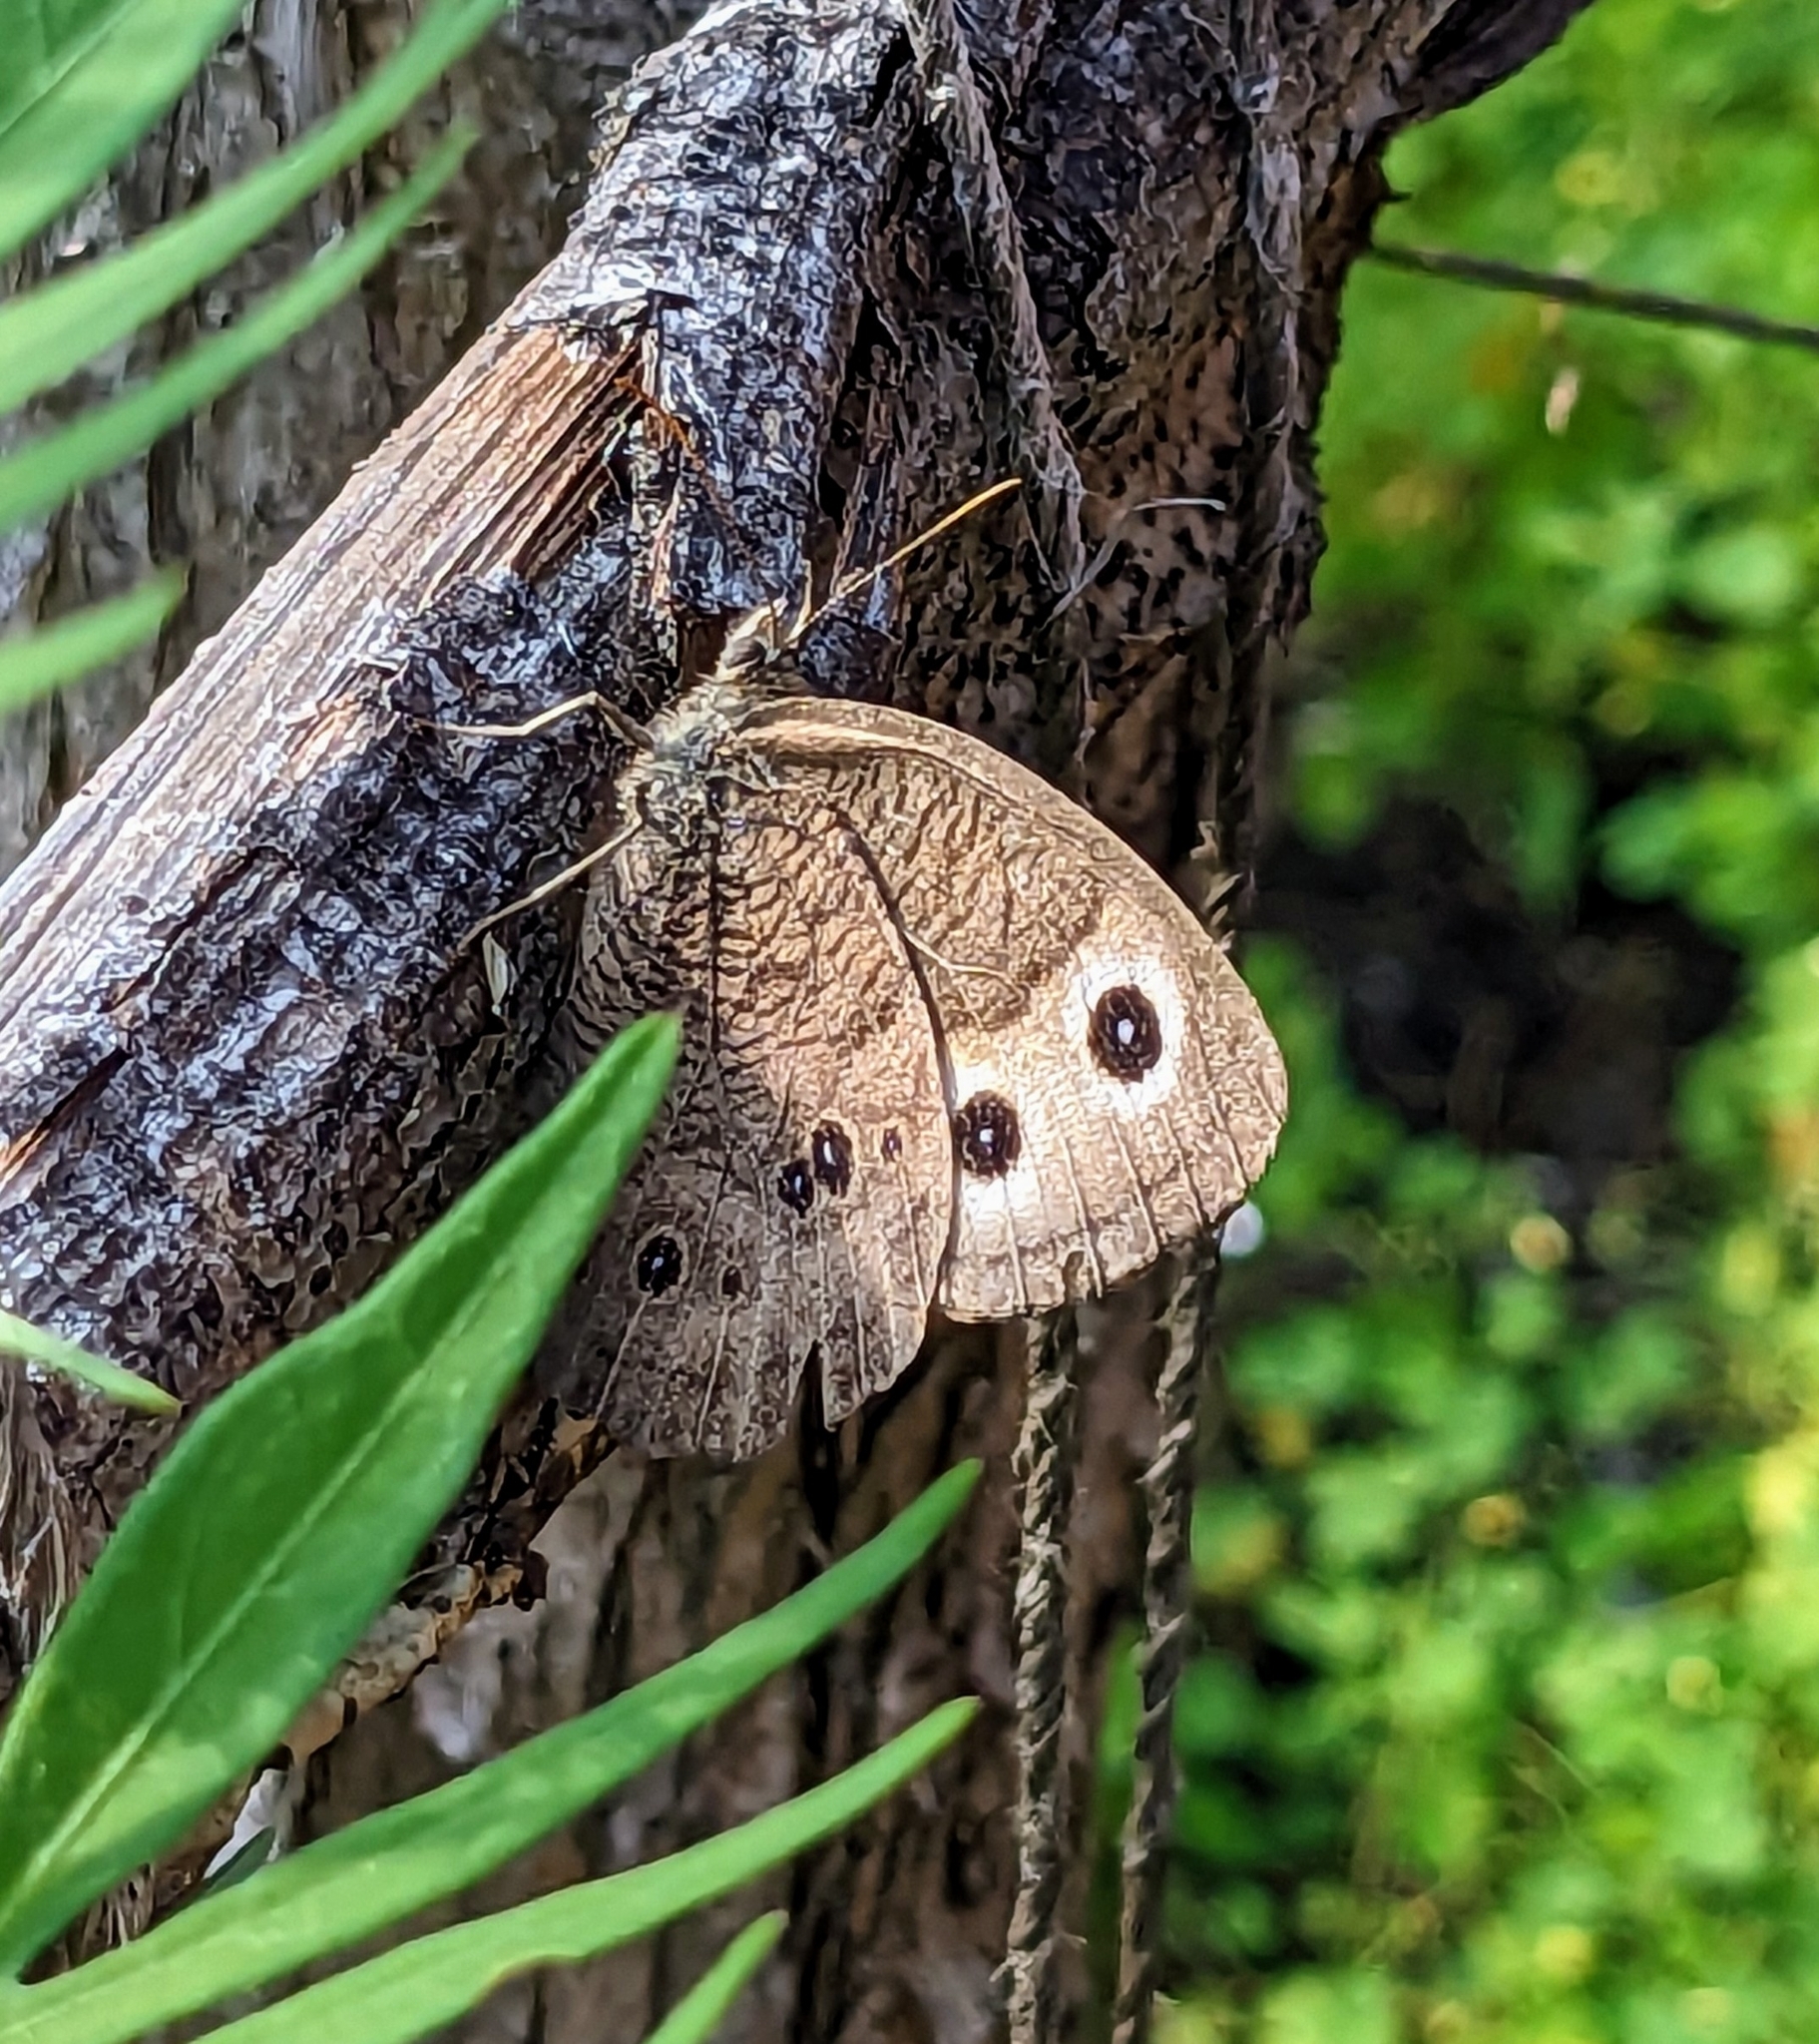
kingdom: Animalia
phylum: Arthropoda
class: Insecta
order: Lepidoptera
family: Nymphalidae
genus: Cercyonis
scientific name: Cercyonis pegala
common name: Common wood-nymph
